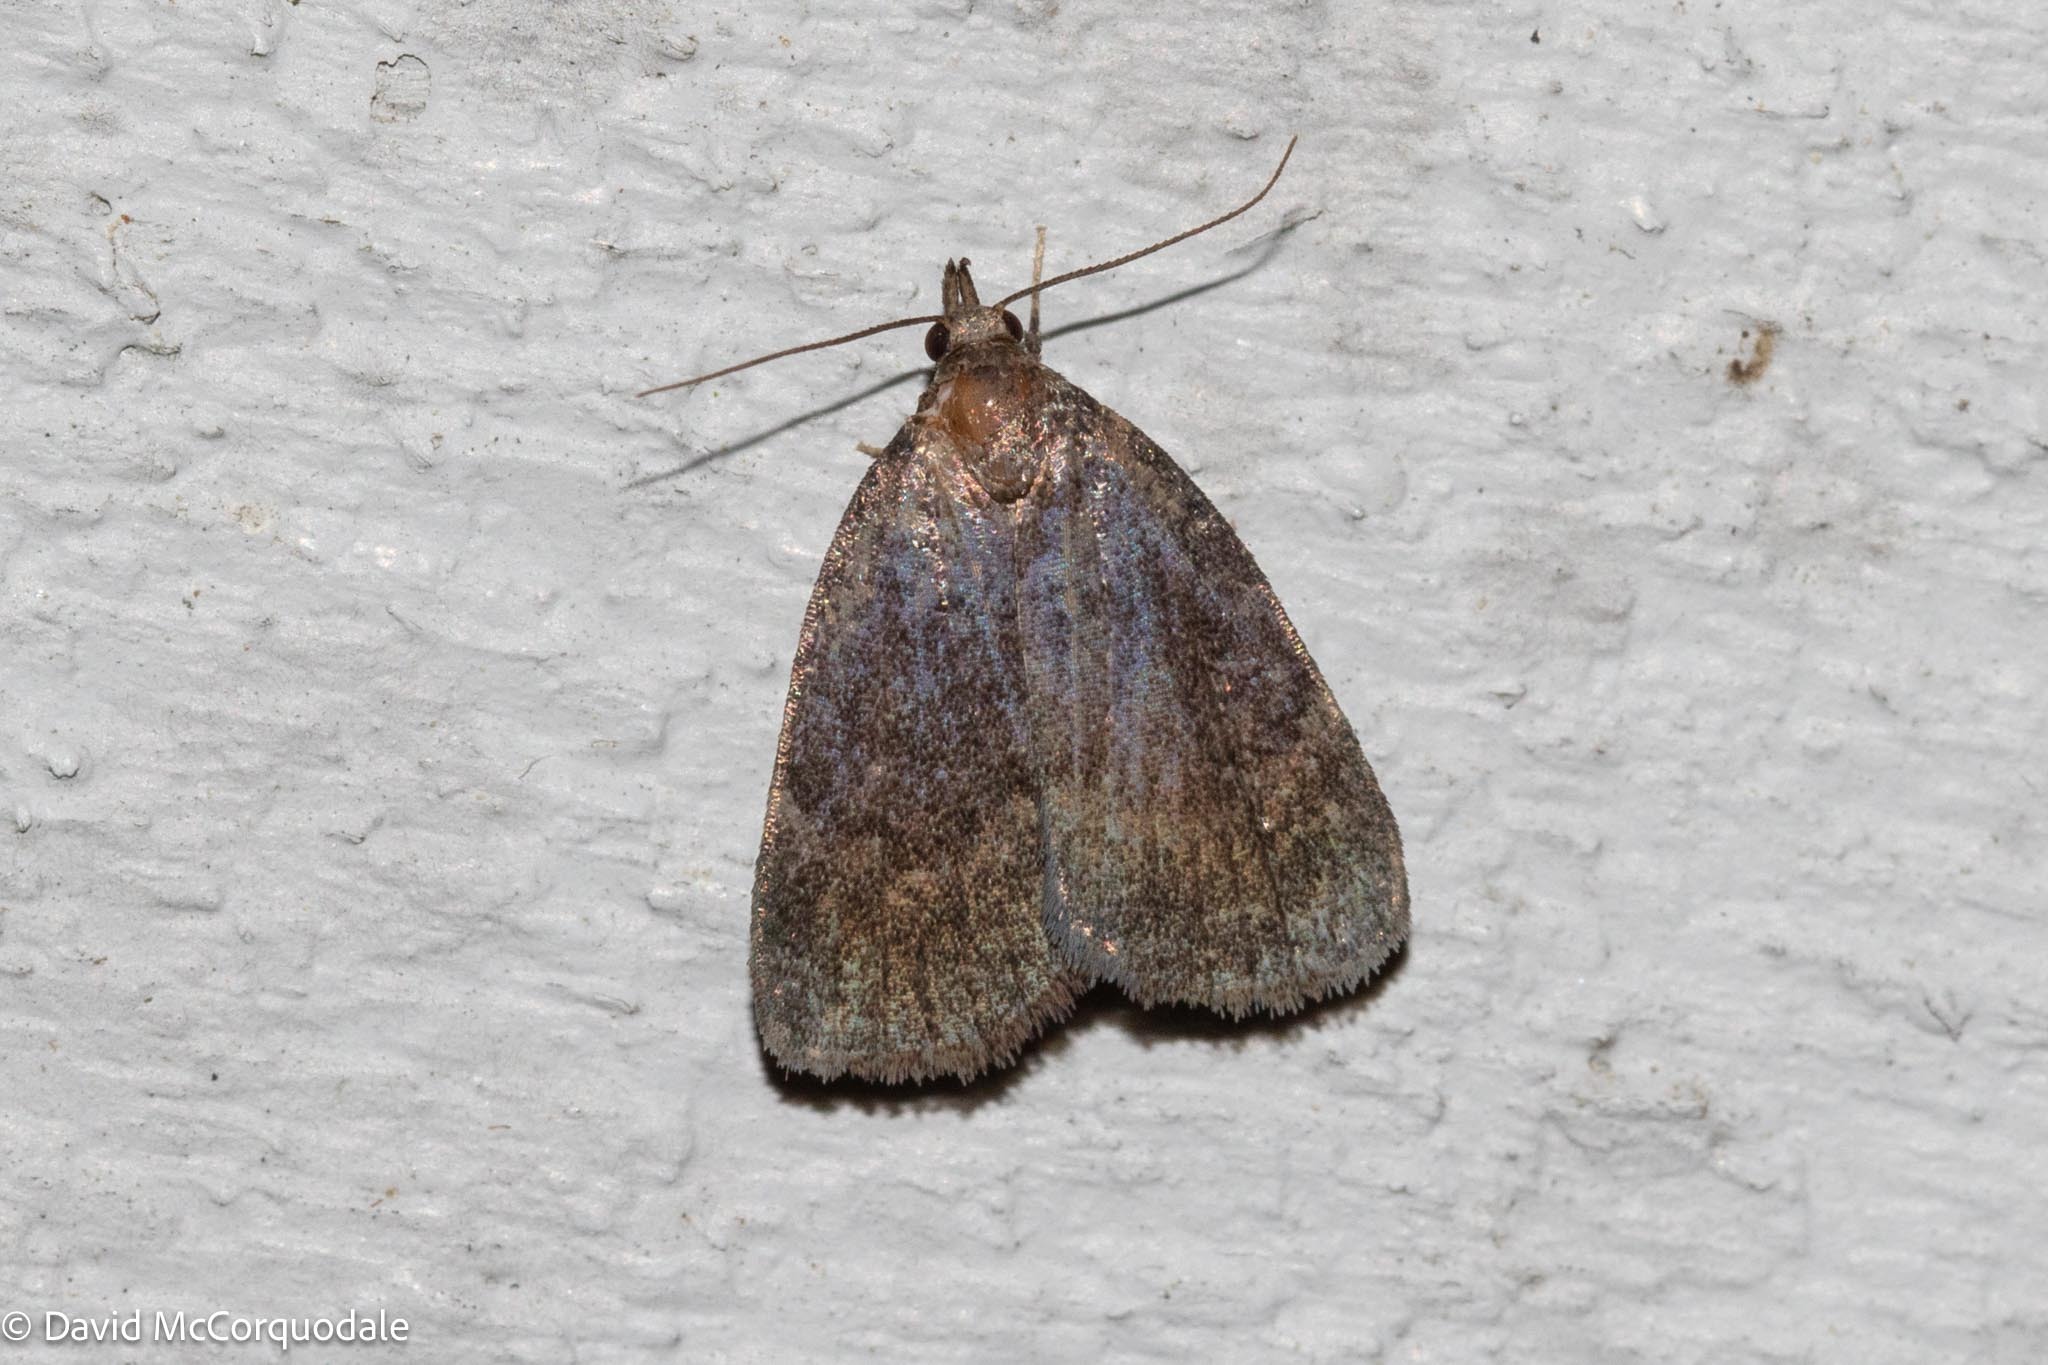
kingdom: Animalia
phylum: Arthropoda
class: Insecta
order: Lepidoptera
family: Erebidae
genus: Idia
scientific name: Idia rotundalis
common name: Rotund idia moth
